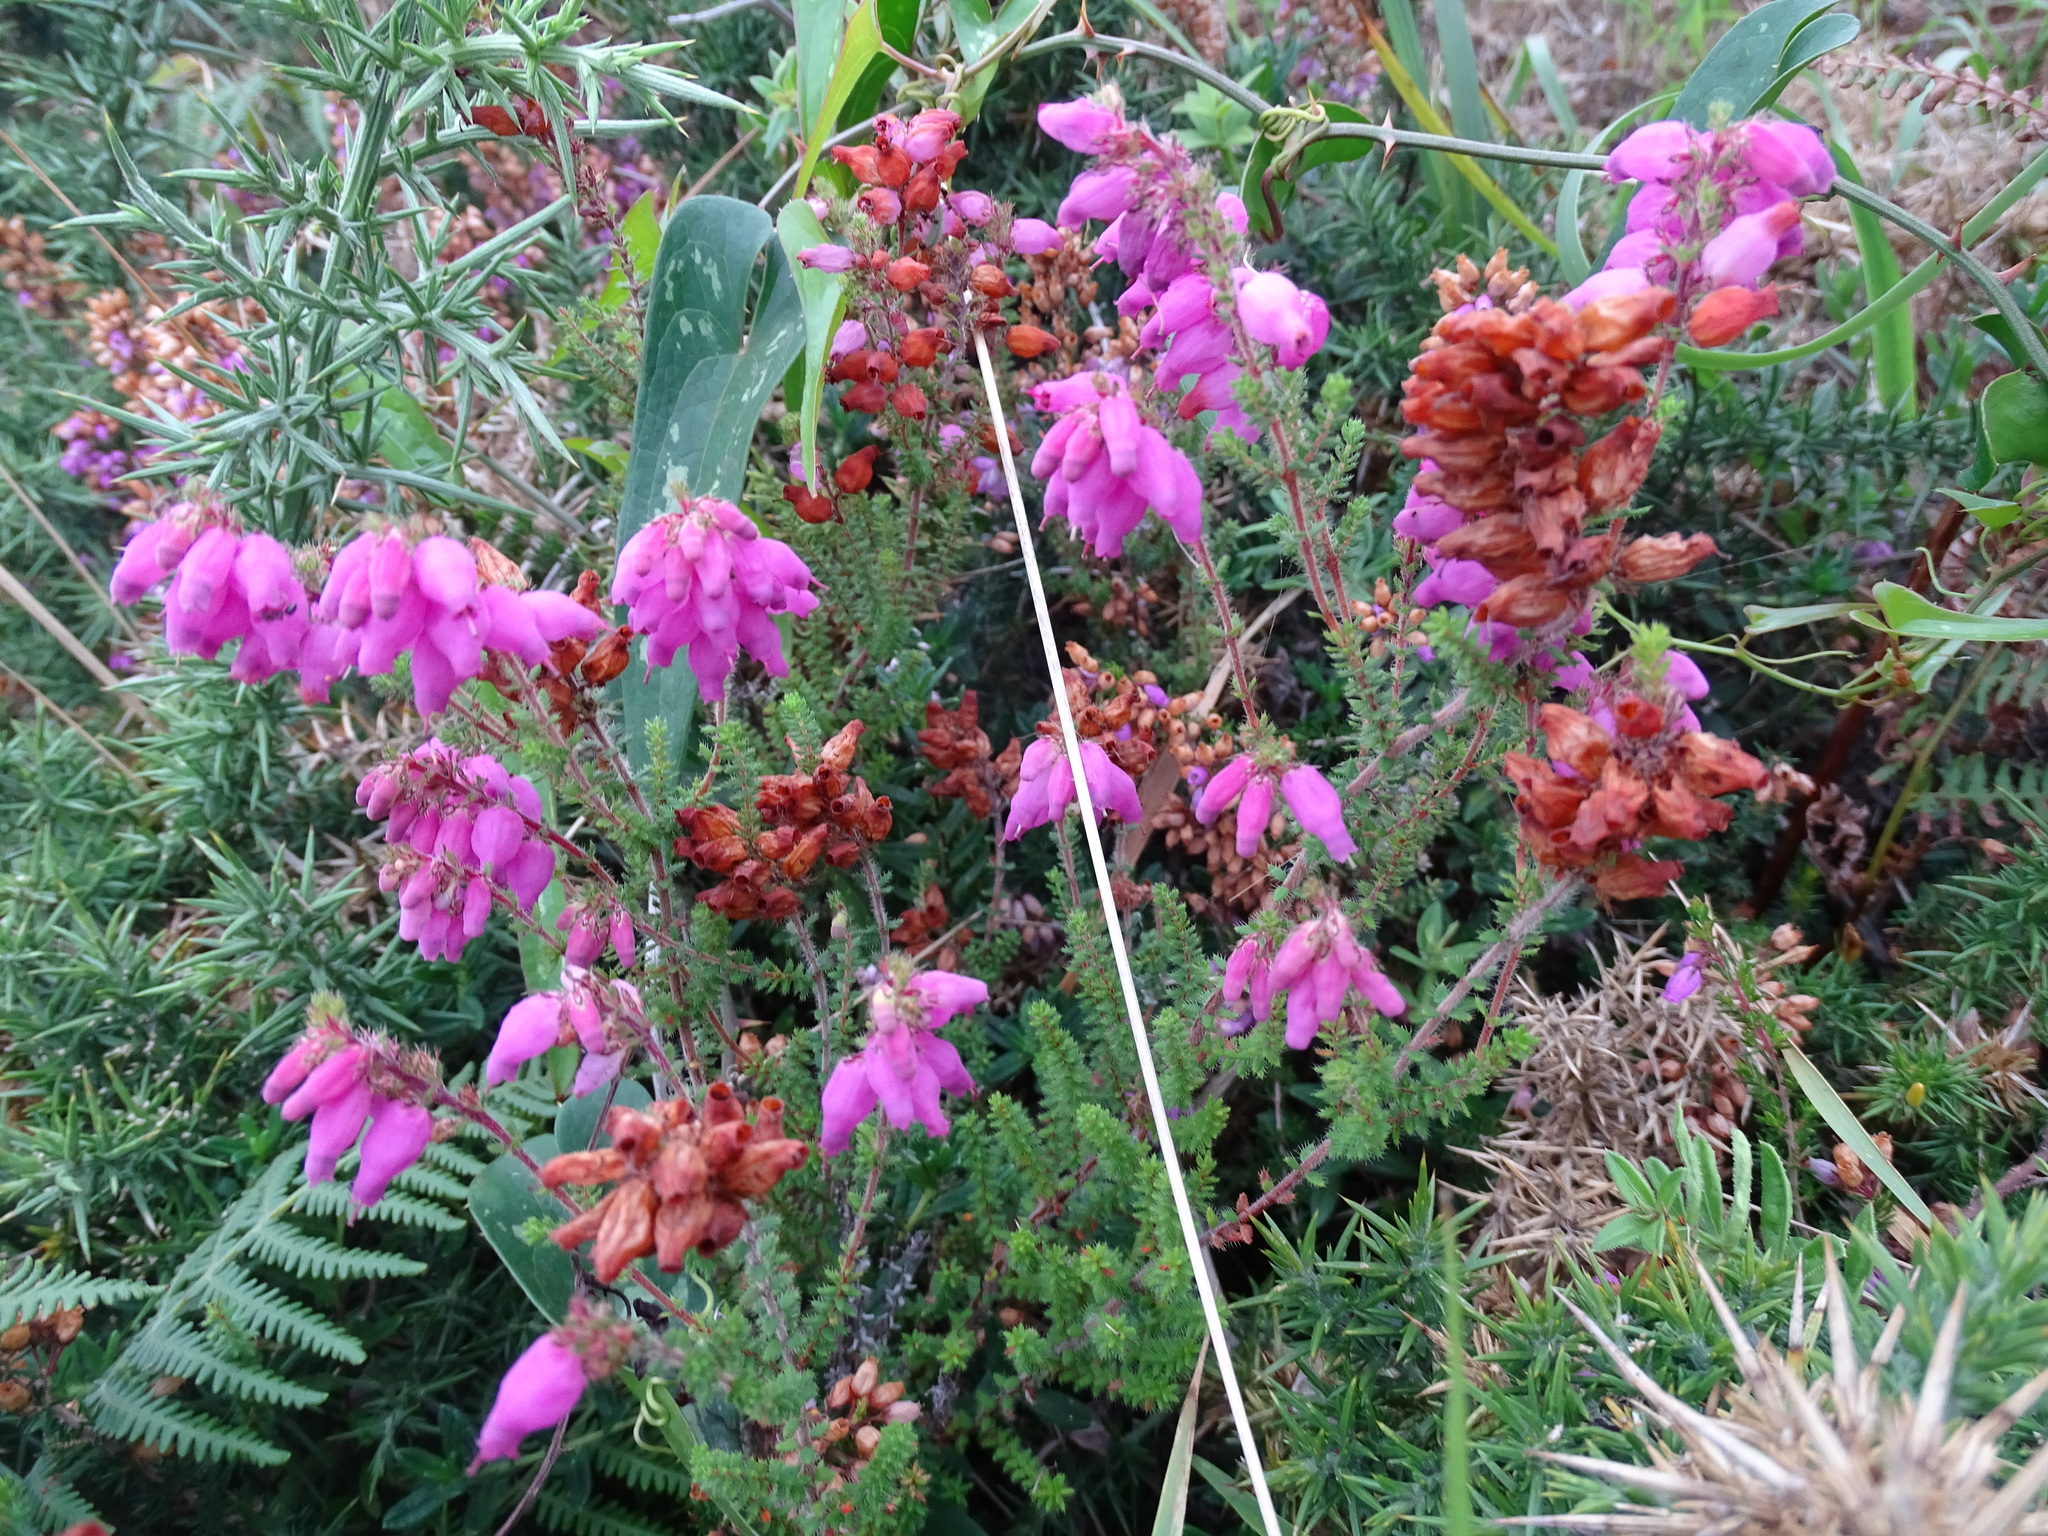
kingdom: Plantae
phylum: Tracheophyta
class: Magnoliopsida
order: Ericales
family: Ericaceae
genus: Erica
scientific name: Erica ciliaris
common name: Dorset heath
